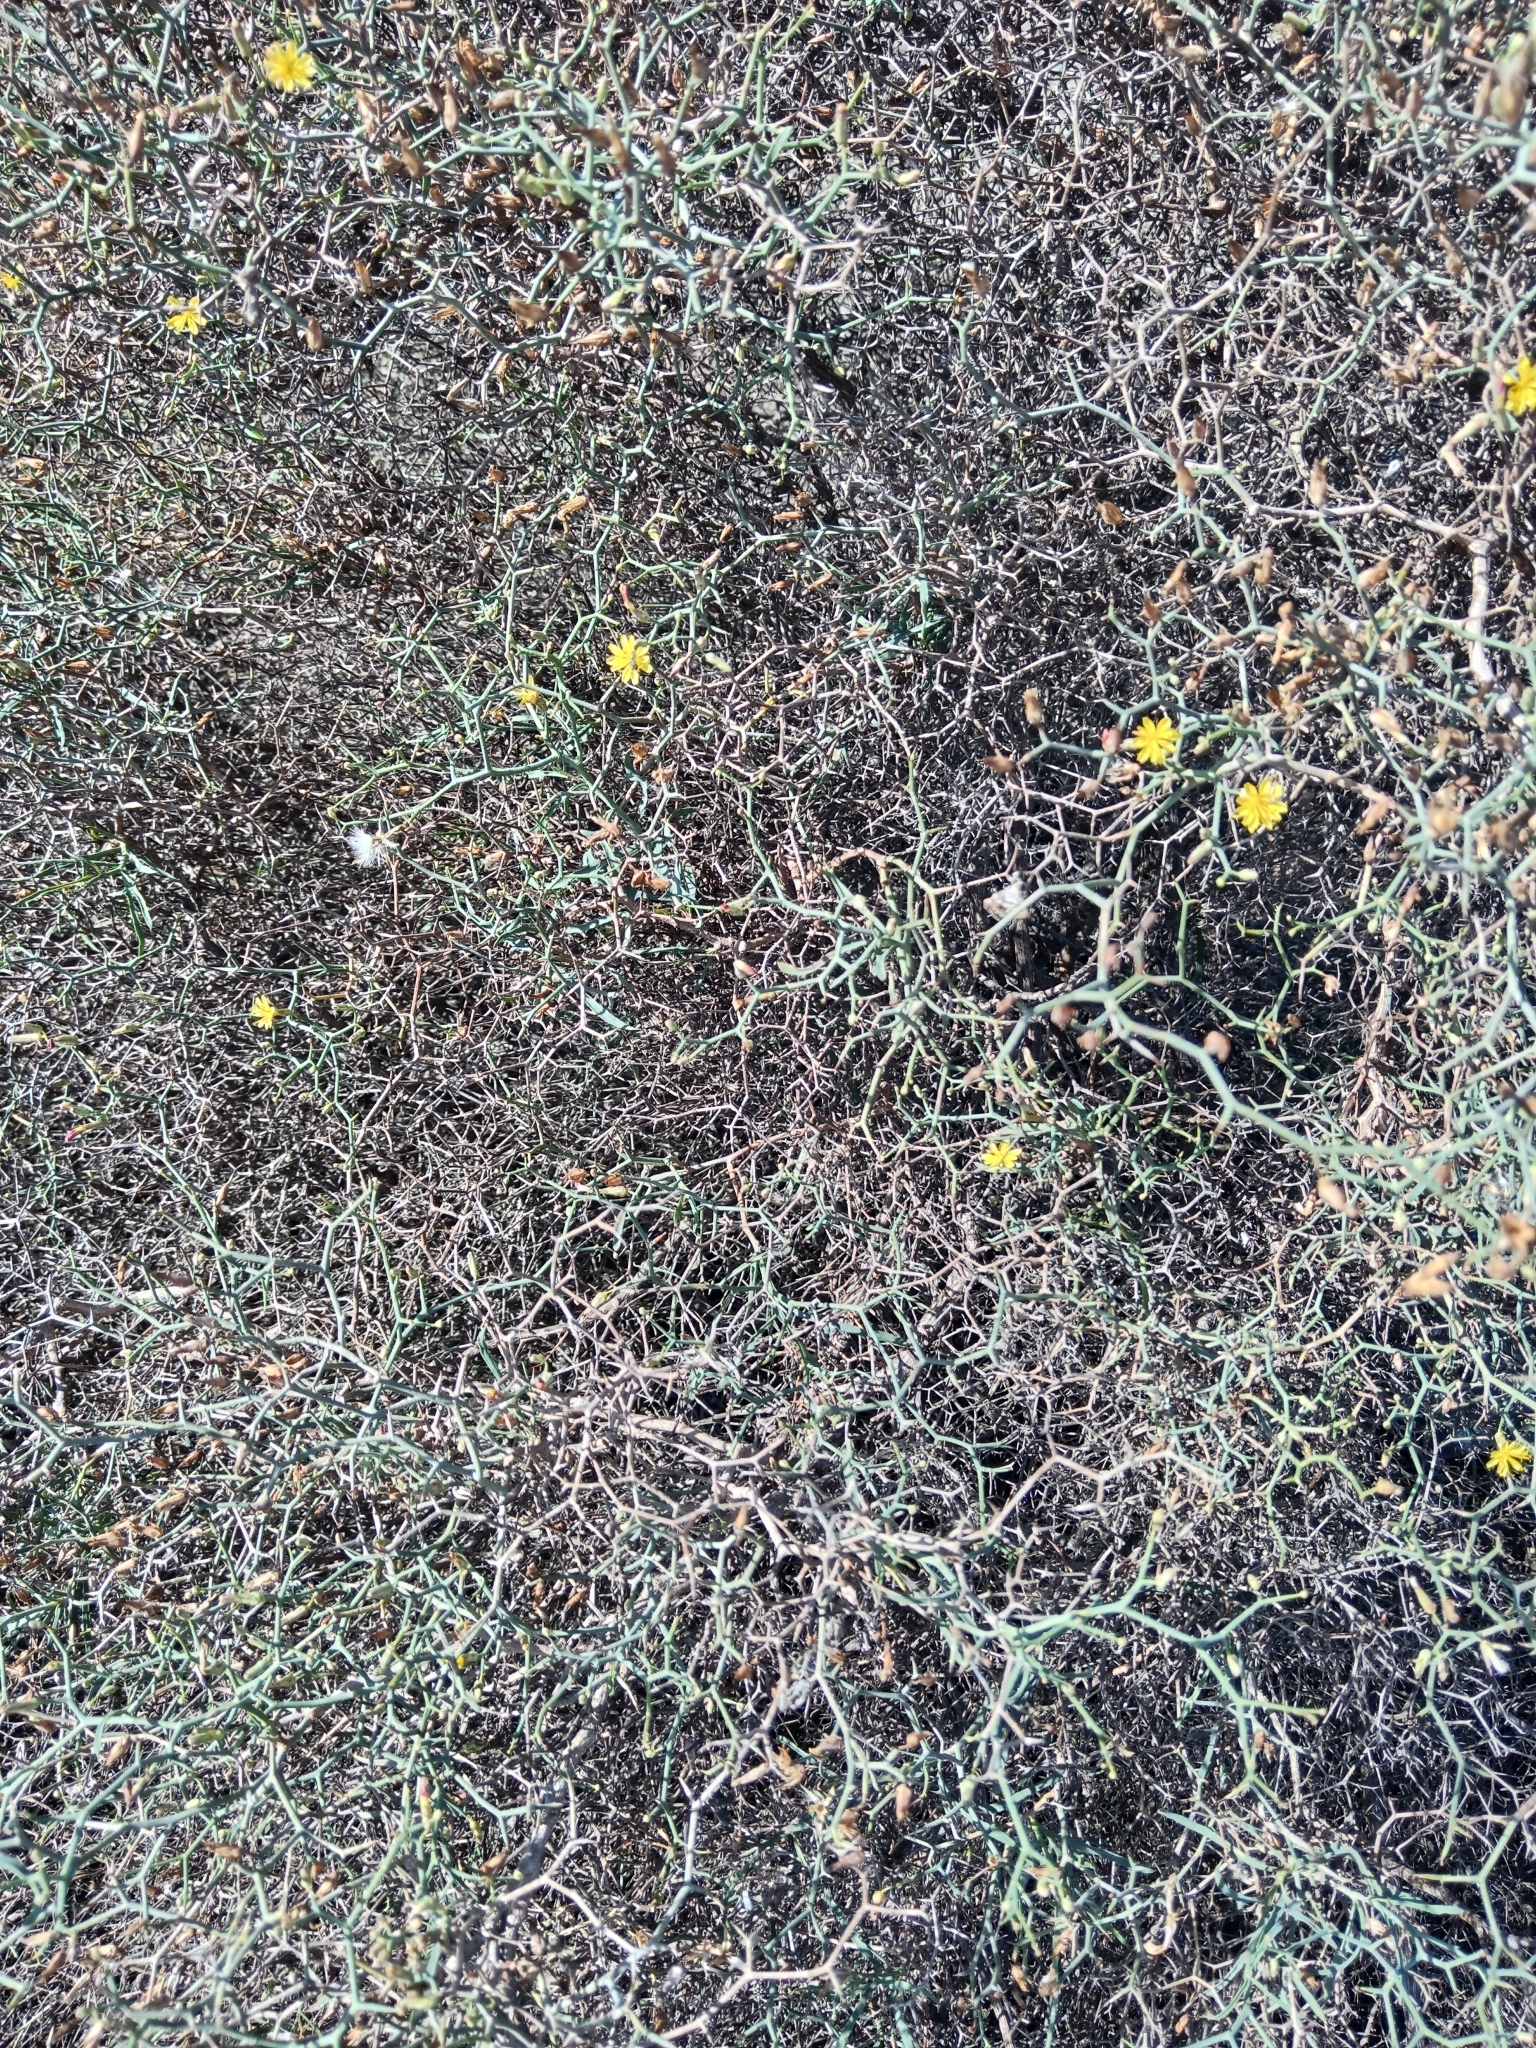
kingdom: Plantae
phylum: Tracheophyta
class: Magnoliopsida
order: Asterales
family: Asteraceae
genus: Launaea
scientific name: Launaea arborescens
